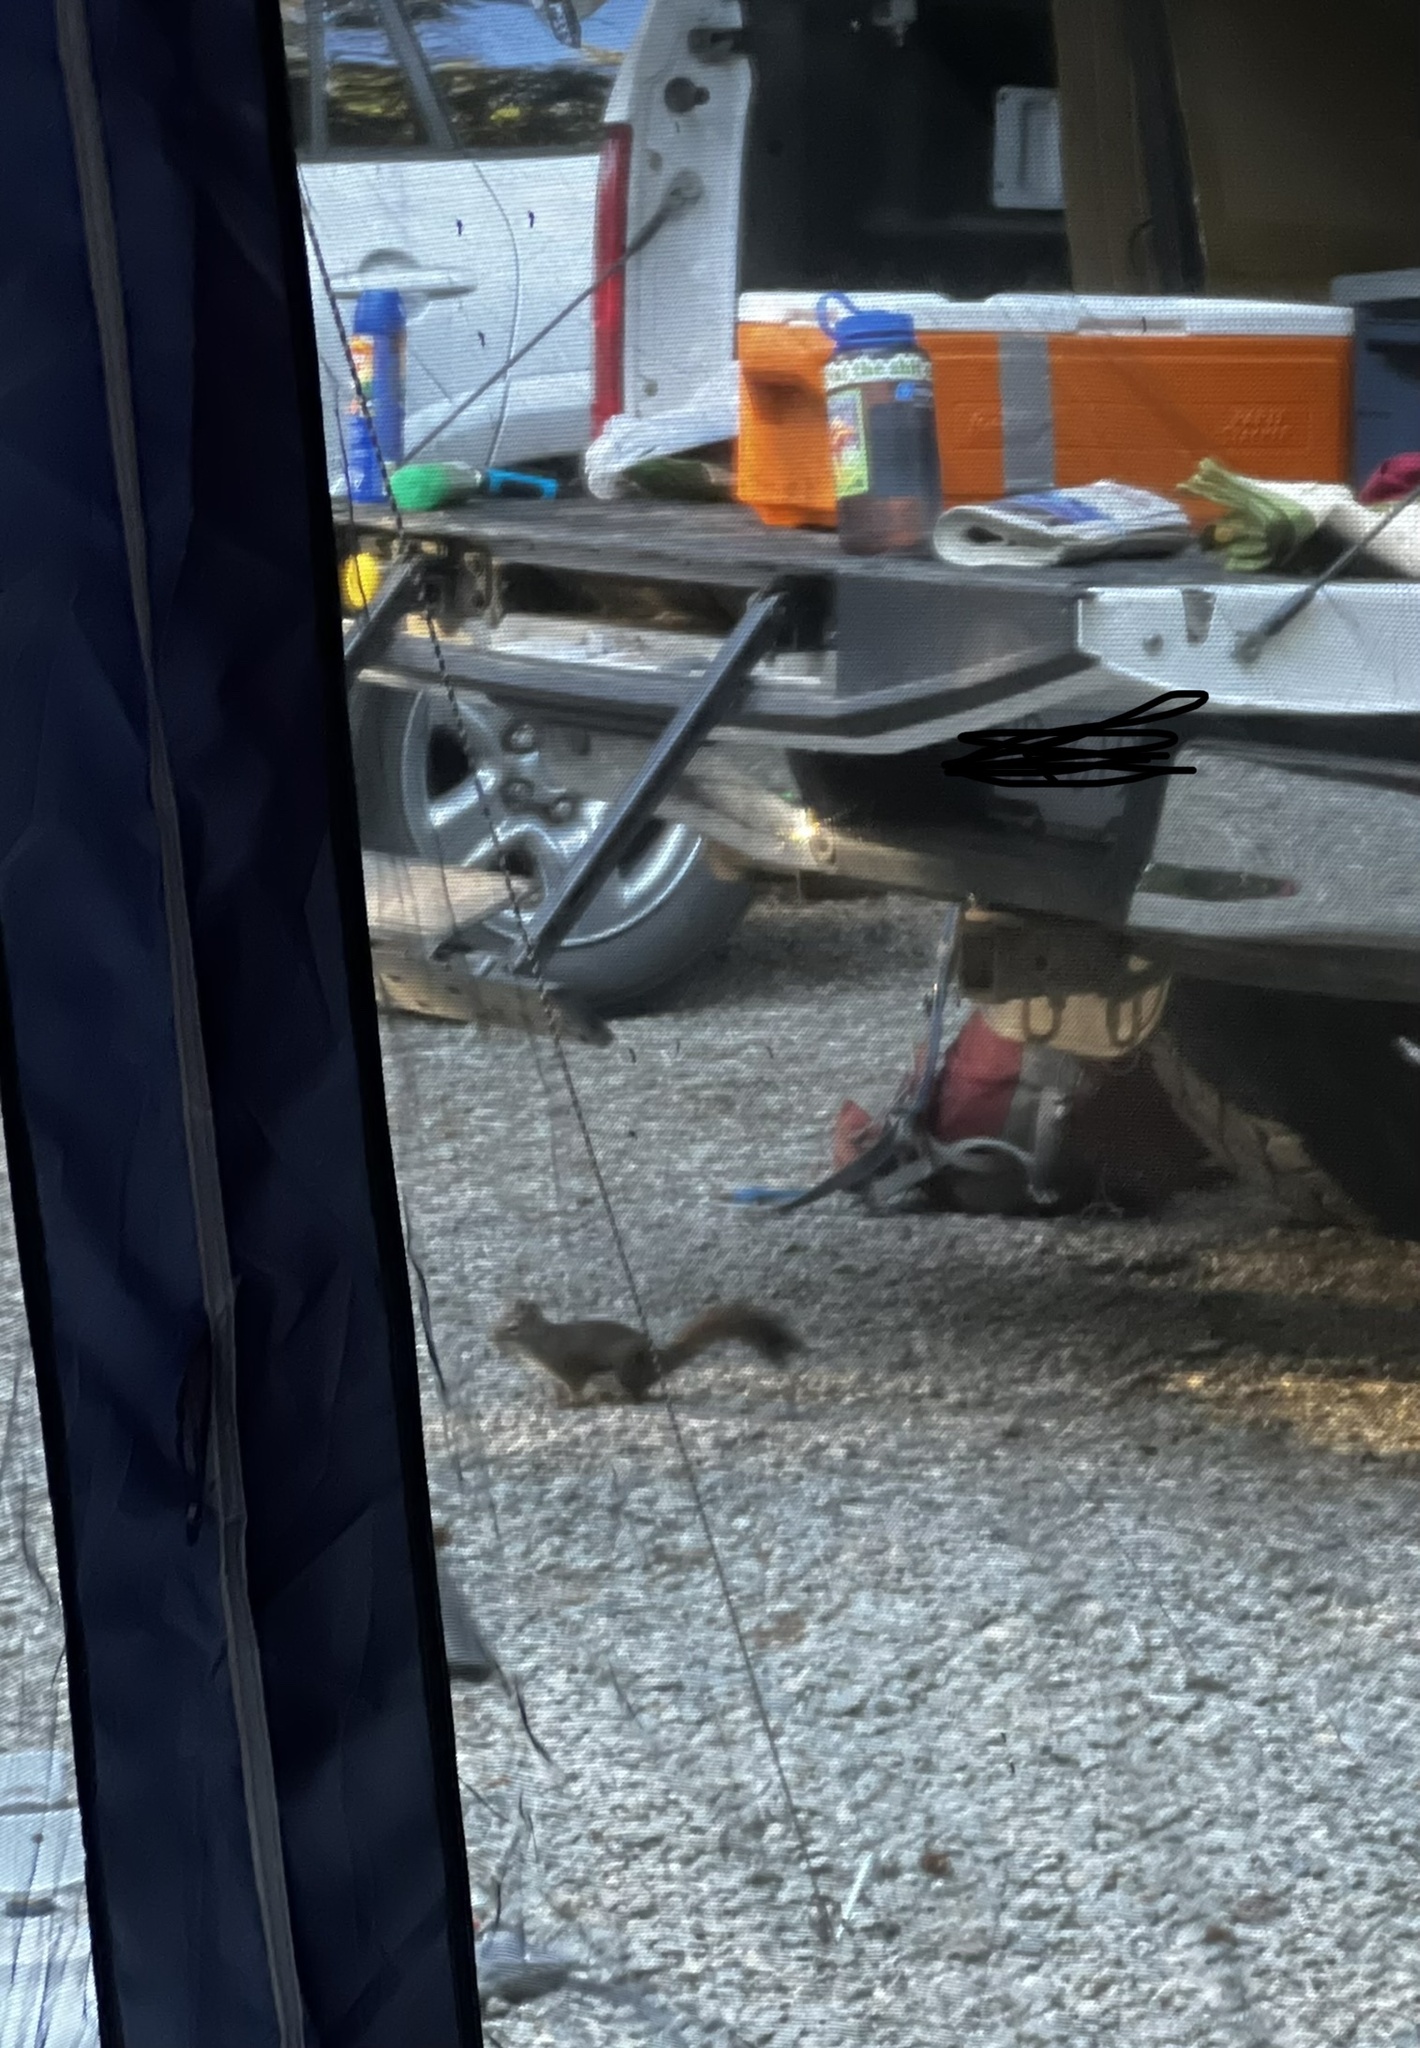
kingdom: Animalia
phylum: Chordata
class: Mammalia
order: Rodentia
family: Sciuridae
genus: Tamiasciurus
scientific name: Tamiasciurus hudsonicus
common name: Red squirrel
